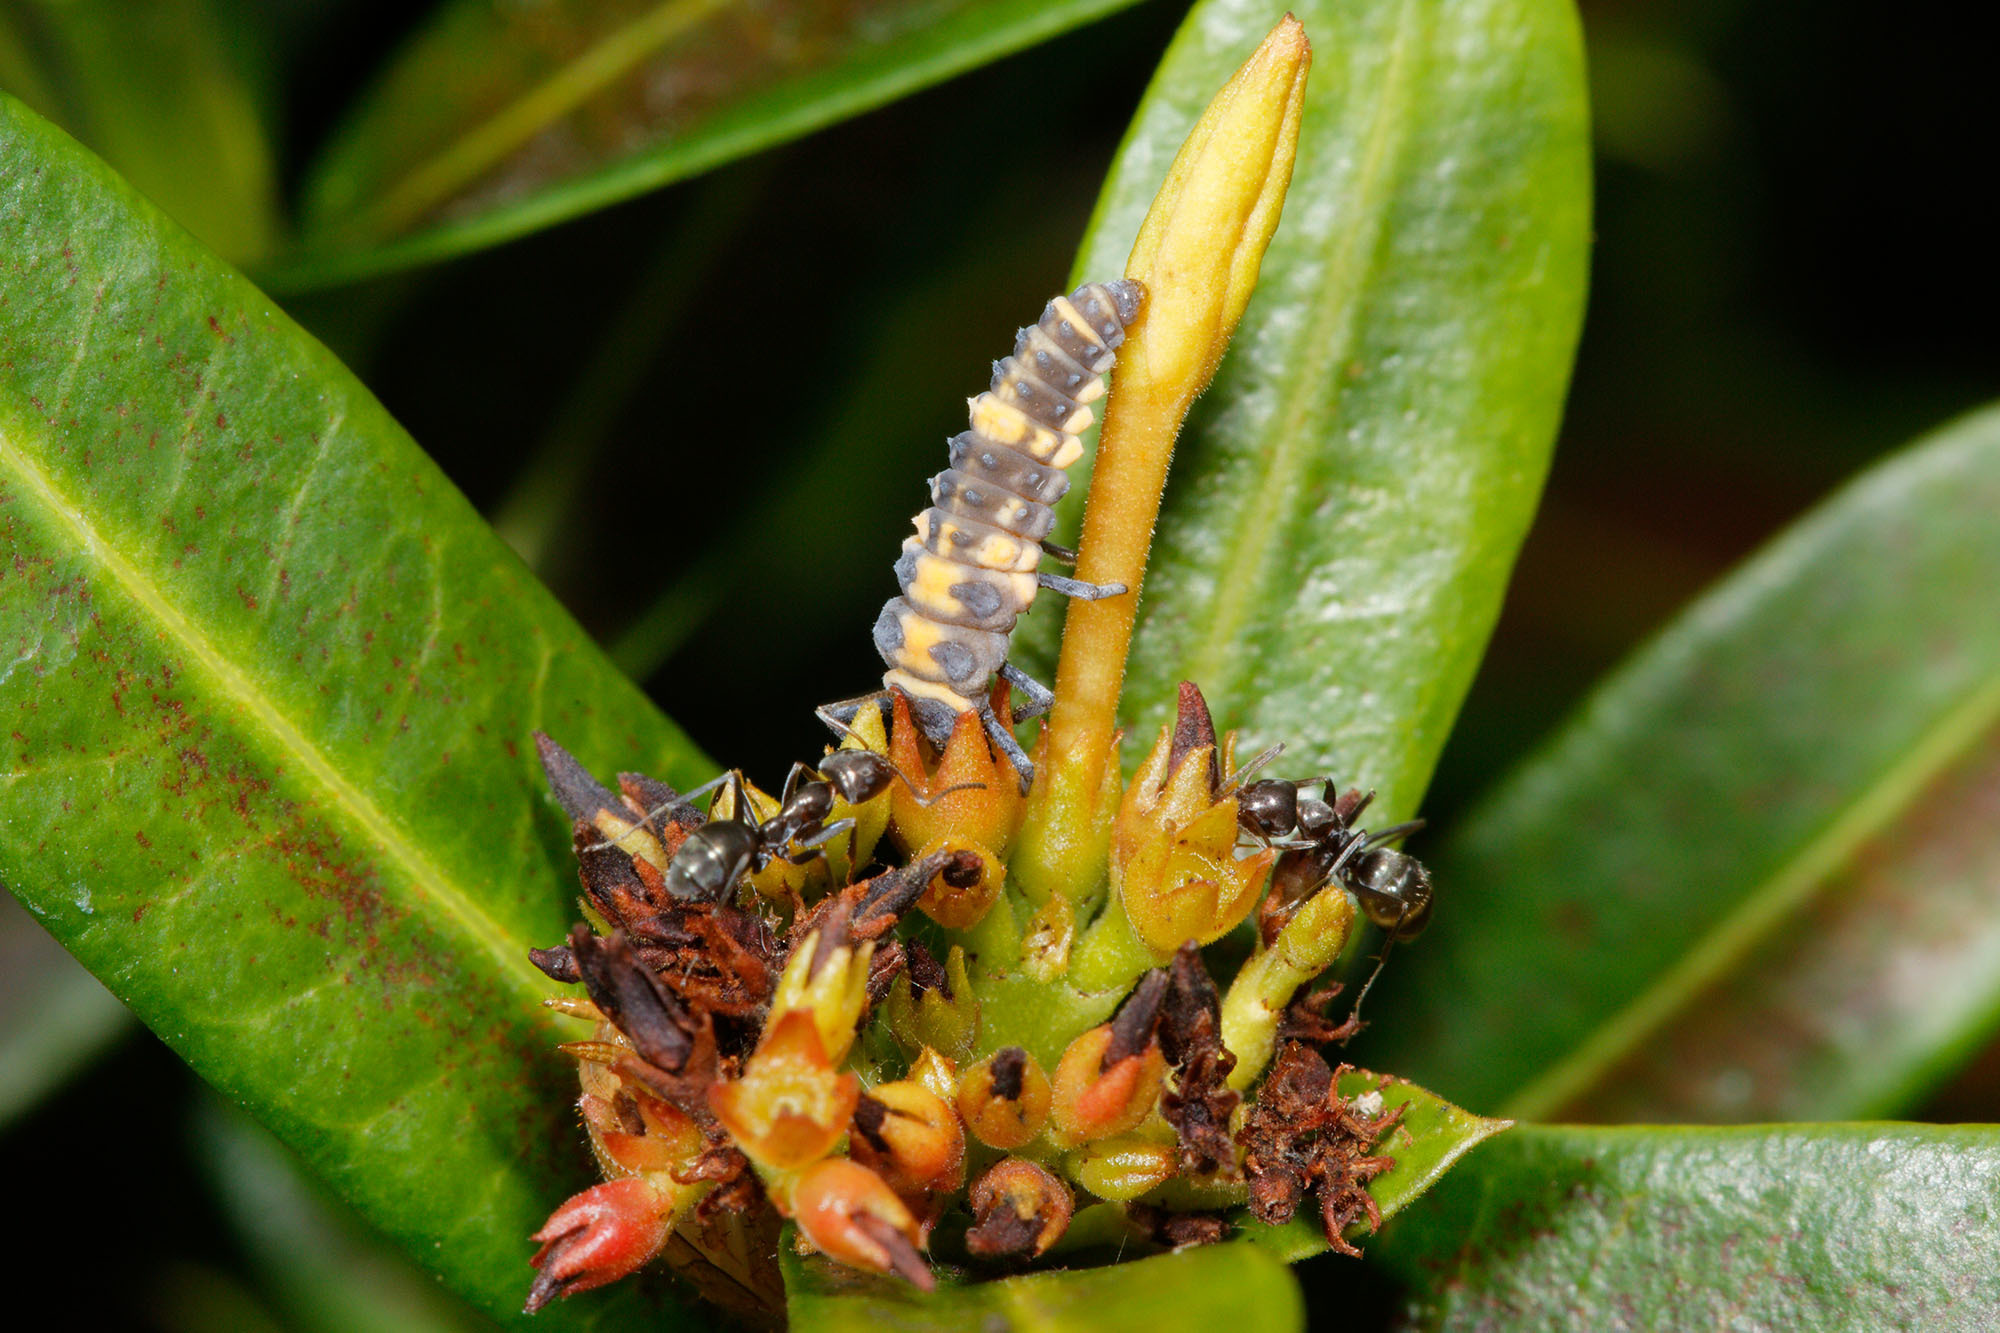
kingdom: Animalia
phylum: Arthropoda
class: Insecta
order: Coleoptera
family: Coccinellidae
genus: Coelophora
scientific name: Coelophora inaequalis
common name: Common australian lady beetle
